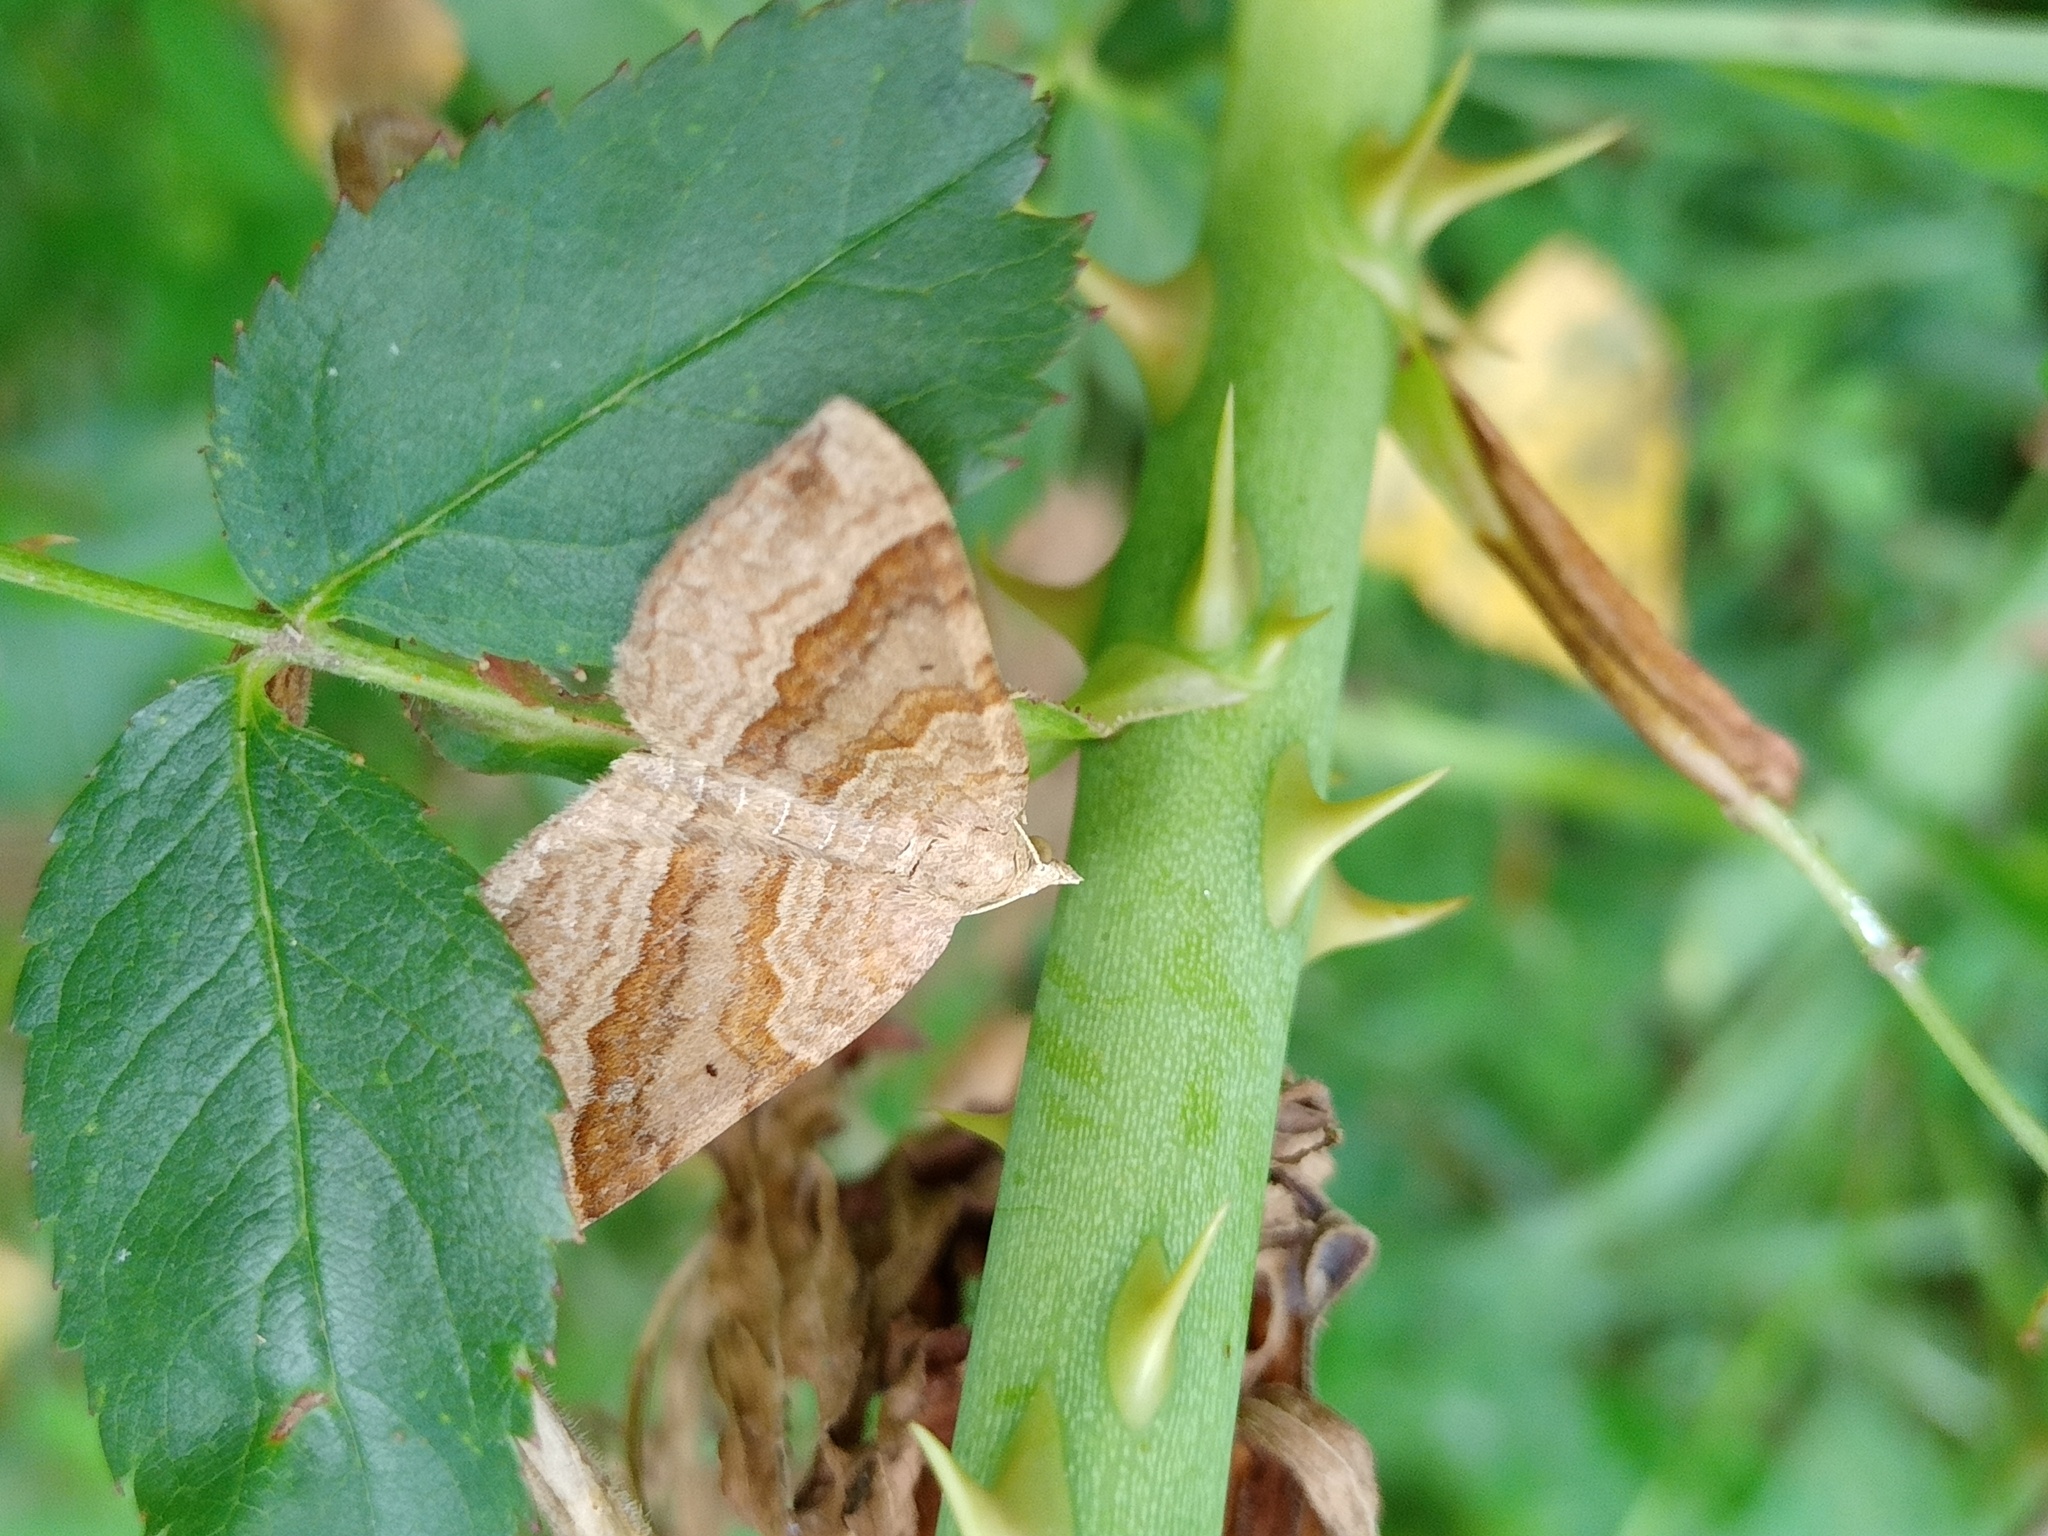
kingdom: Animalia
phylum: Arthropoda
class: Insecta
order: Lepidoptera
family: Geometridae
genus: Scotopteryx
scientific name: Scotopteryx chenopodiata
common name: Shaded broad-bar
